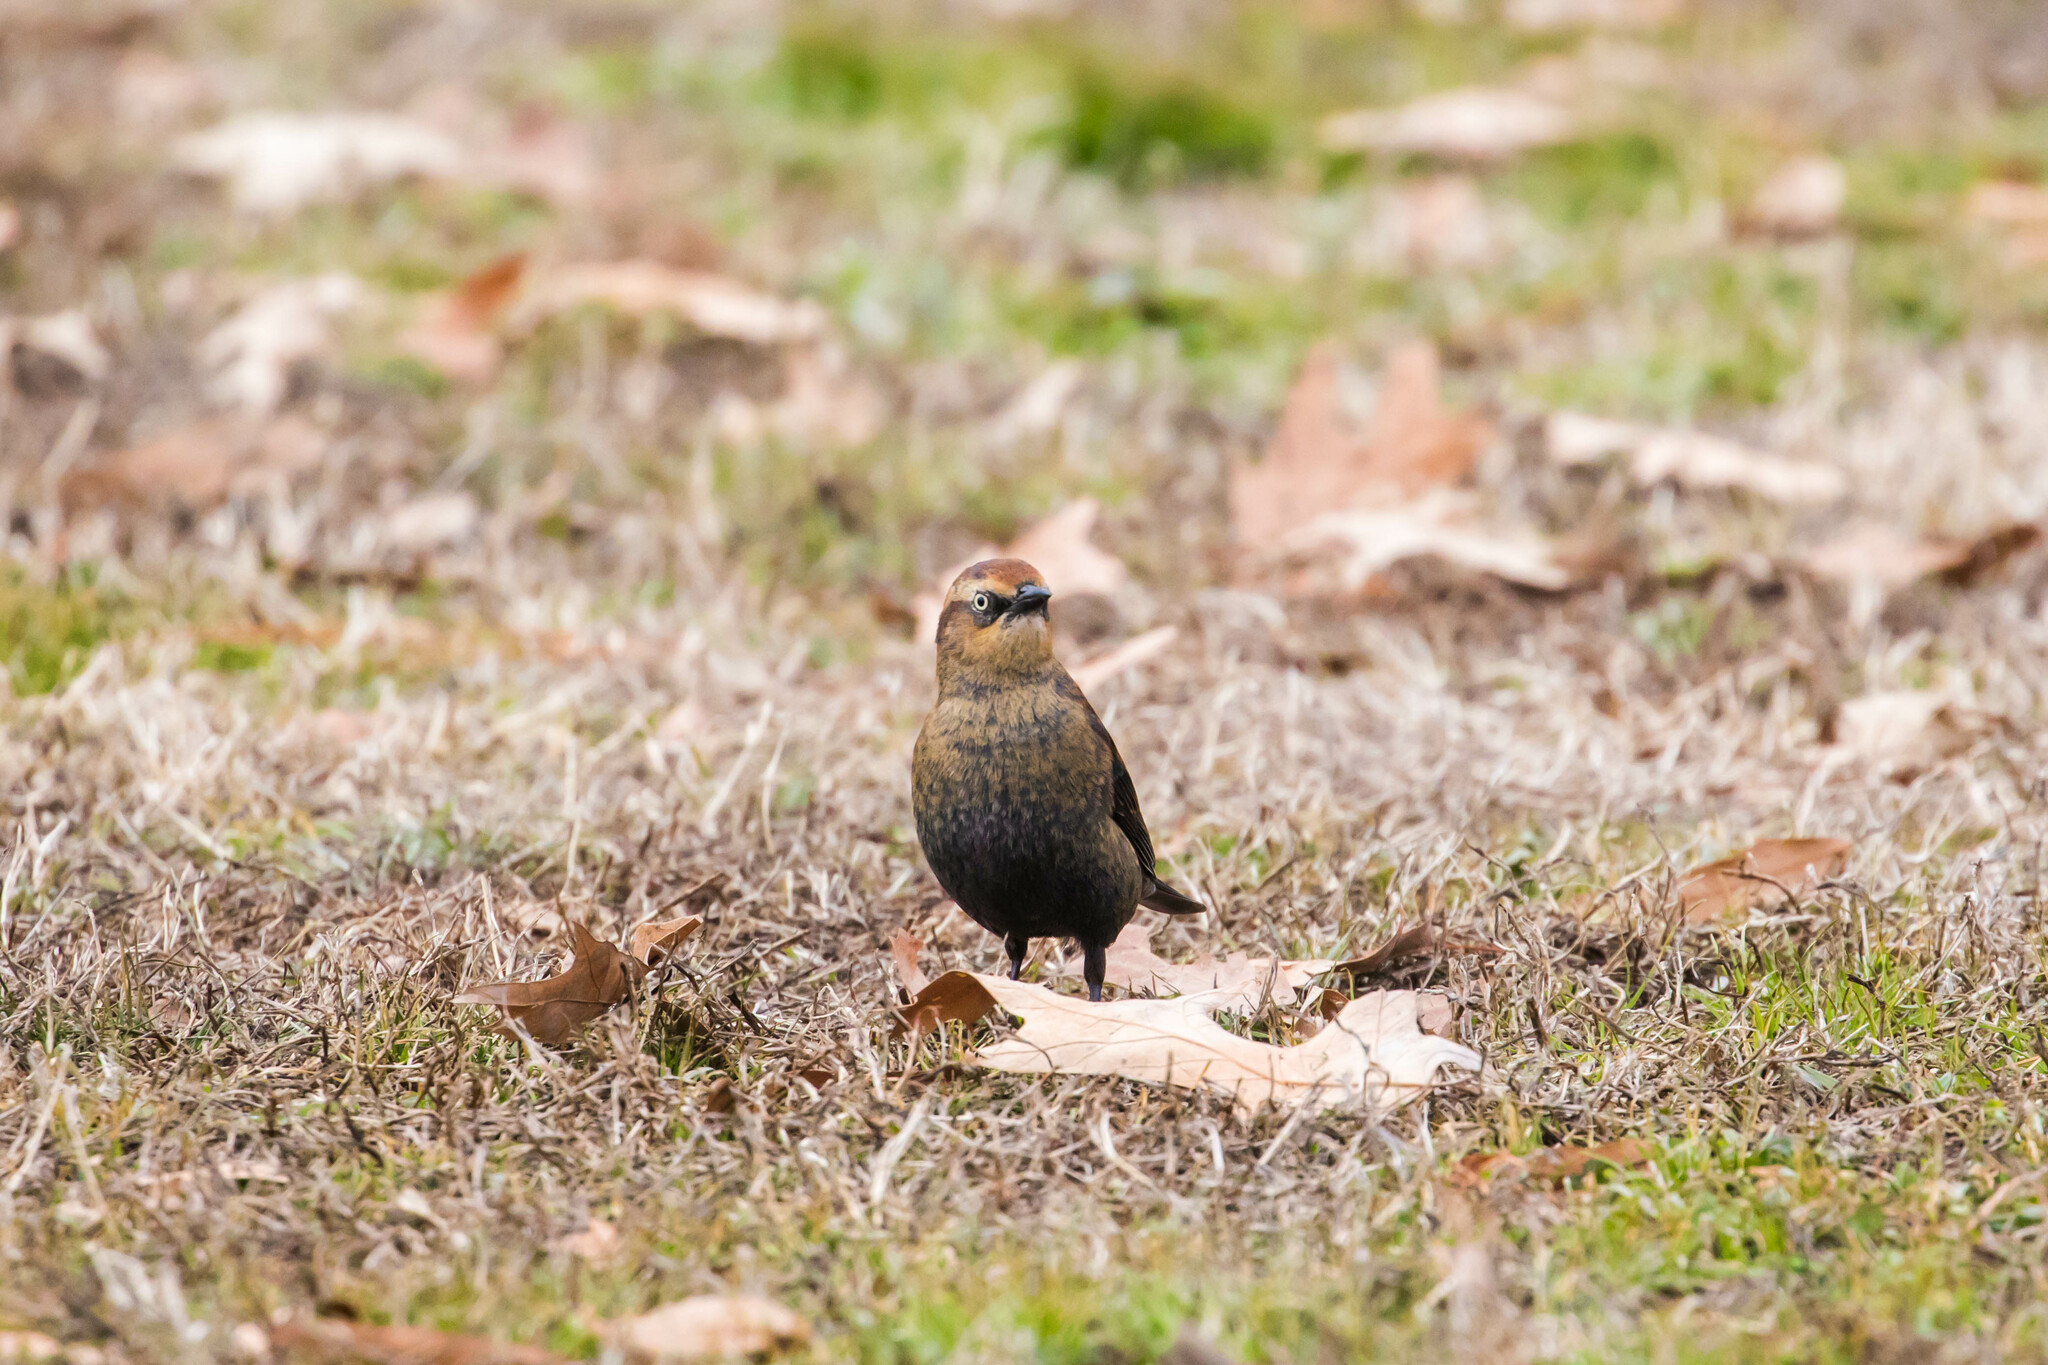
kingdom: Animalia
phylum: Chordata
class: Aves
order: Passeriformes
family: Icteridae
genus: Euphagus
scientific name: Euphagus carolinus
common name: Rusty blackbird
